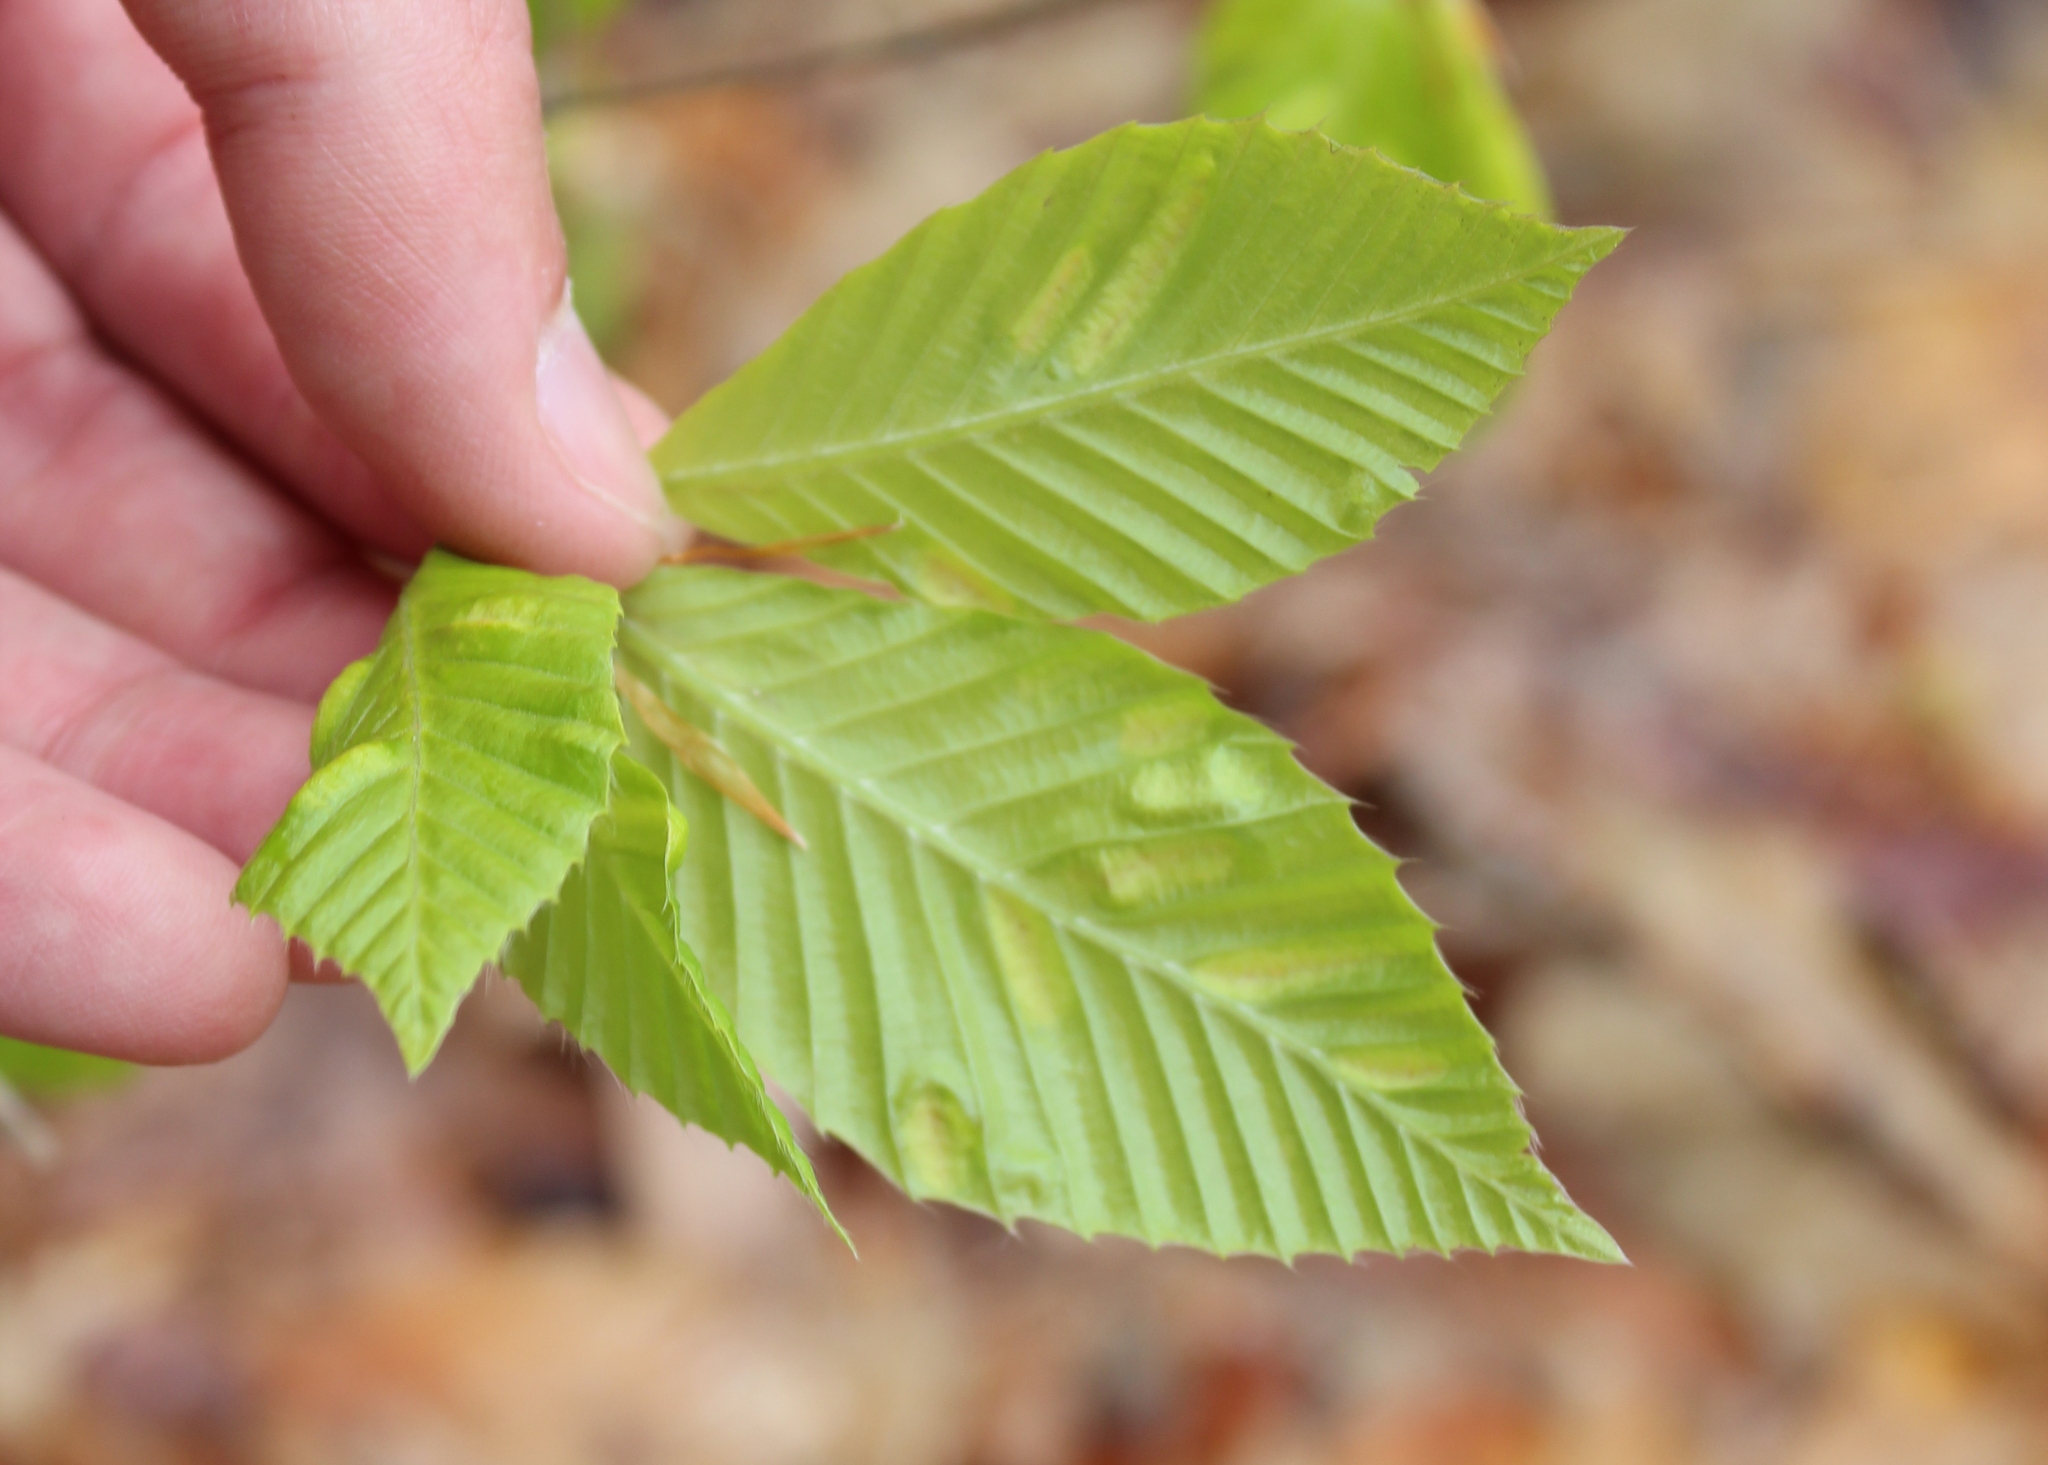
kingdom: Animalia
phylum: Nematoda
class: Chromadorea
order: Rhabditida
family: Anguinidae
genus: Litylenchus
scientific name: Litylenchus crenatae
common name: Beech leaf disease
